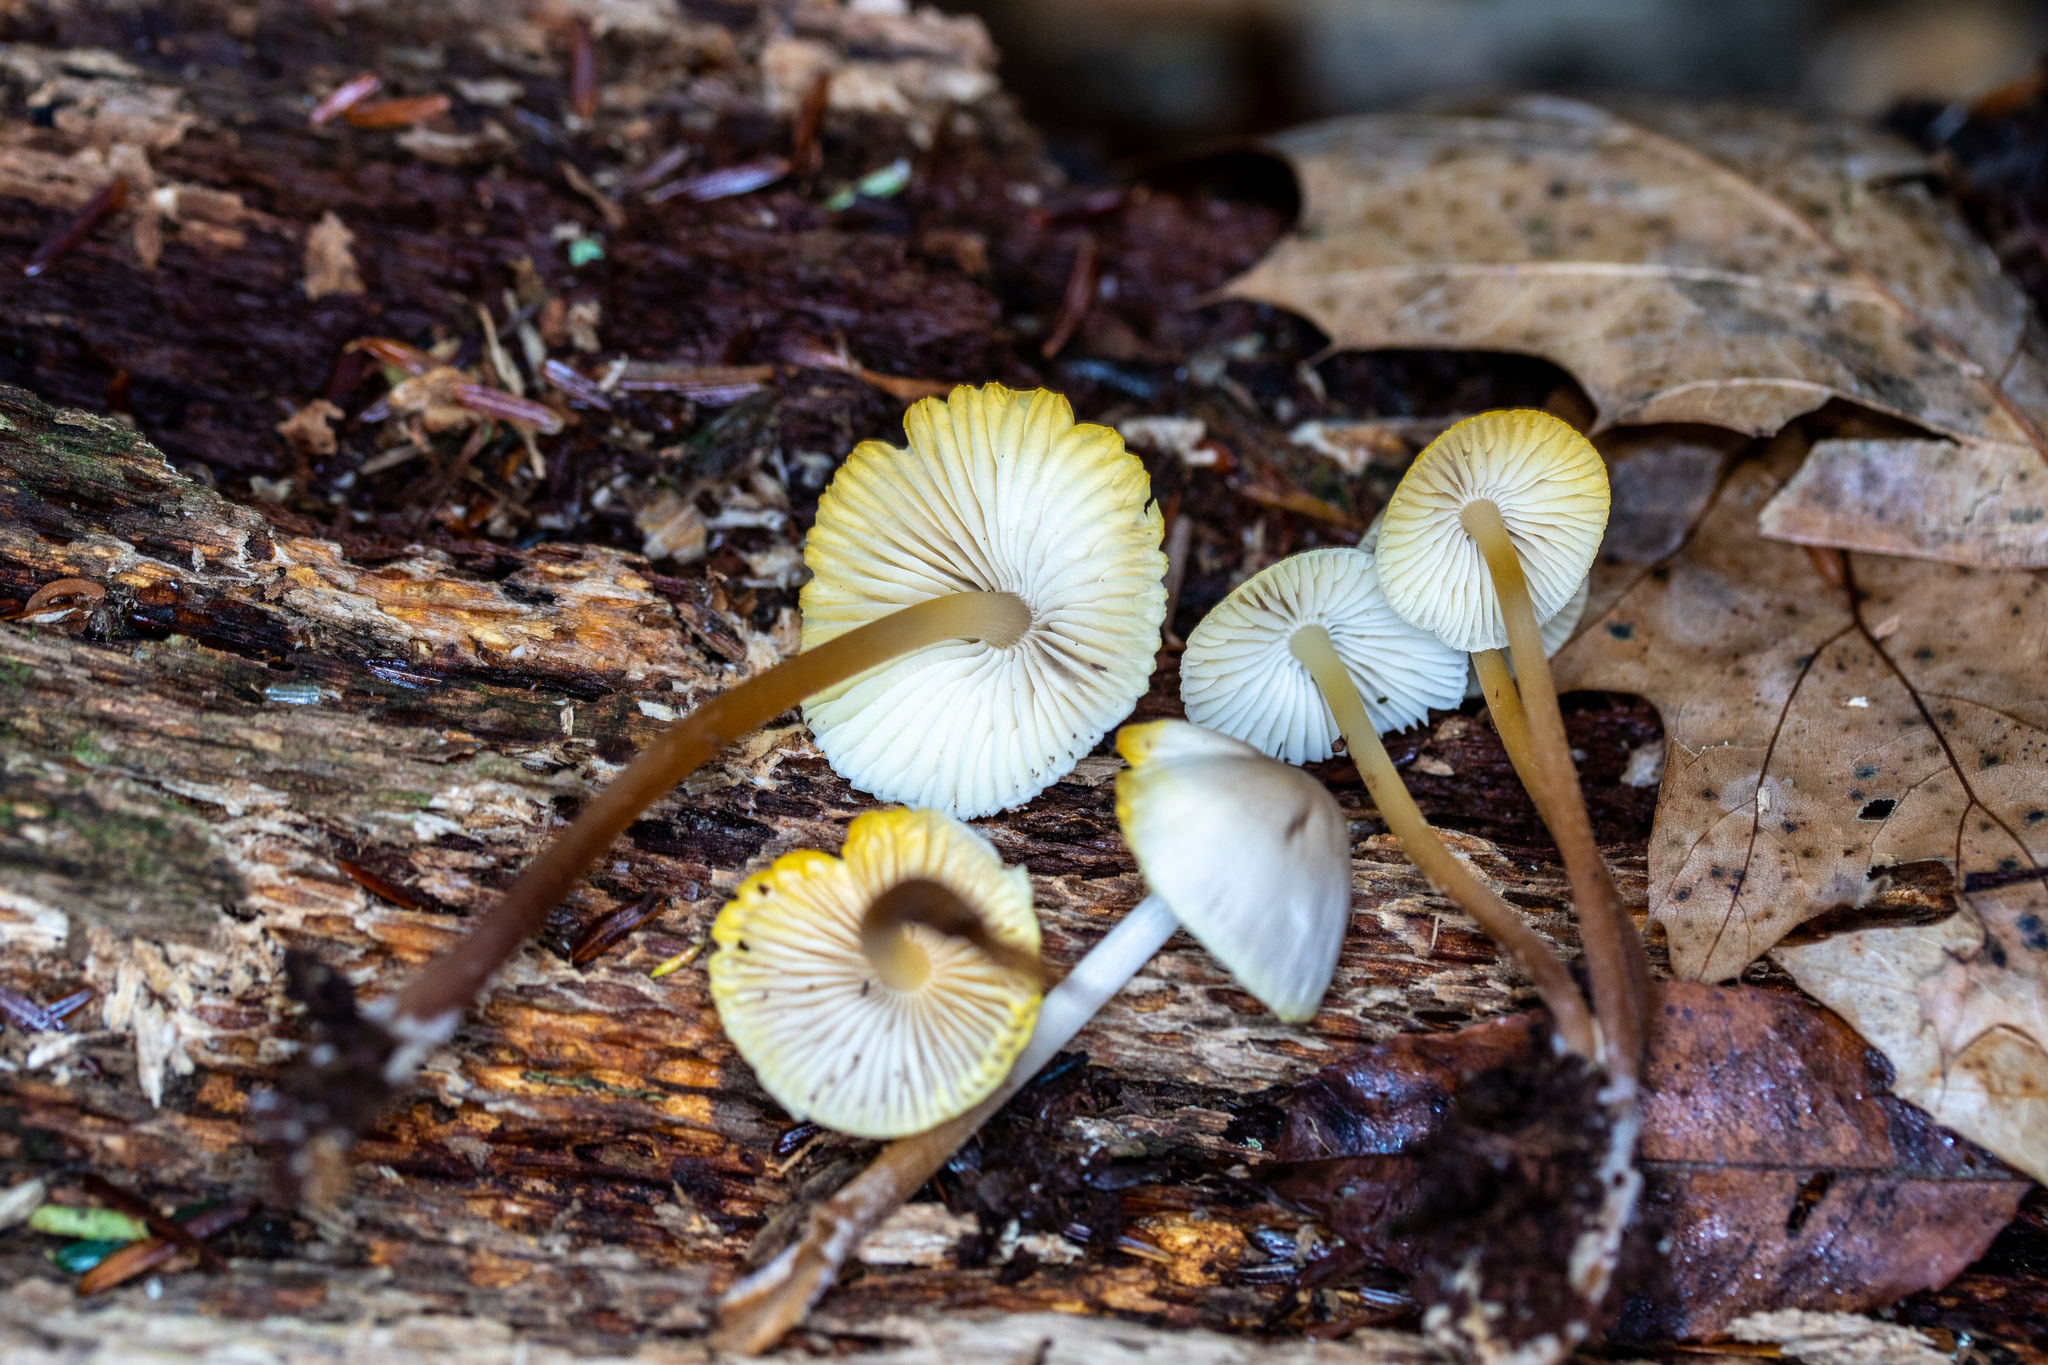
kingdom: Fungi
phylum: Basidiomycota
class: Agaricomycetes
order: Agaricales
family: Mycenaceae
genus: Mycena
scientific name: Mycena inclinata
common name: Clustered bonnet
